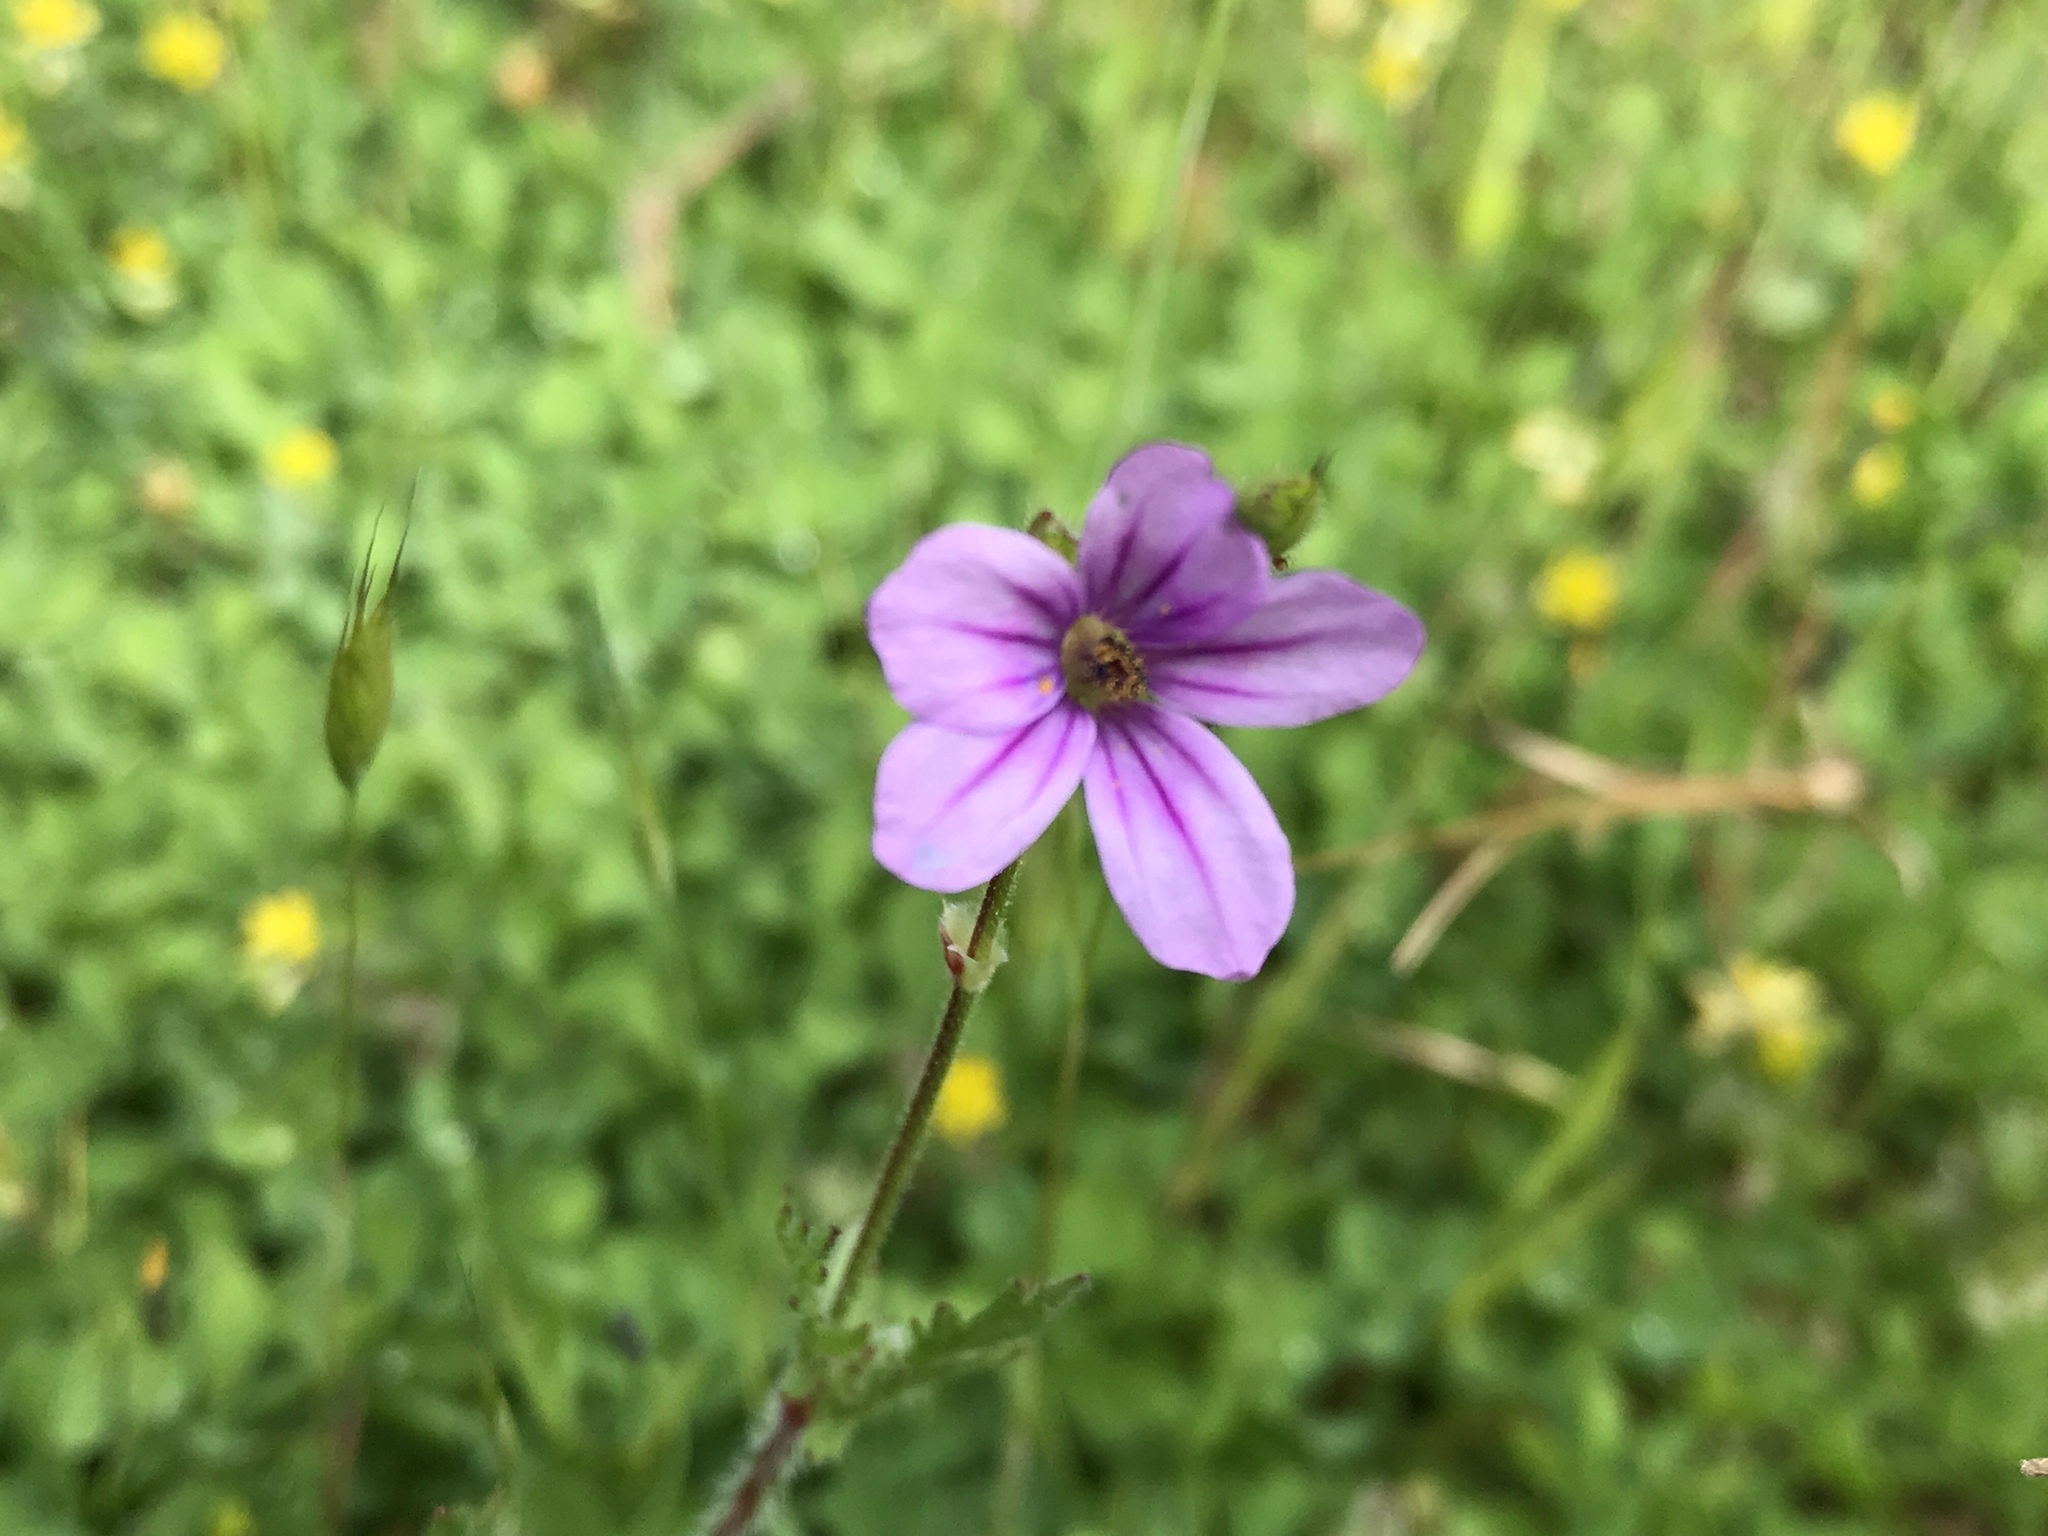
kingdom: Plantae
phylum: Tracheophyta
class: Magnoliopsida
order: Geraniales
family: Geraniaceae
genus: Erodium
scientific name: Erodium botrys
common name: Mediterranean stork's-bill
